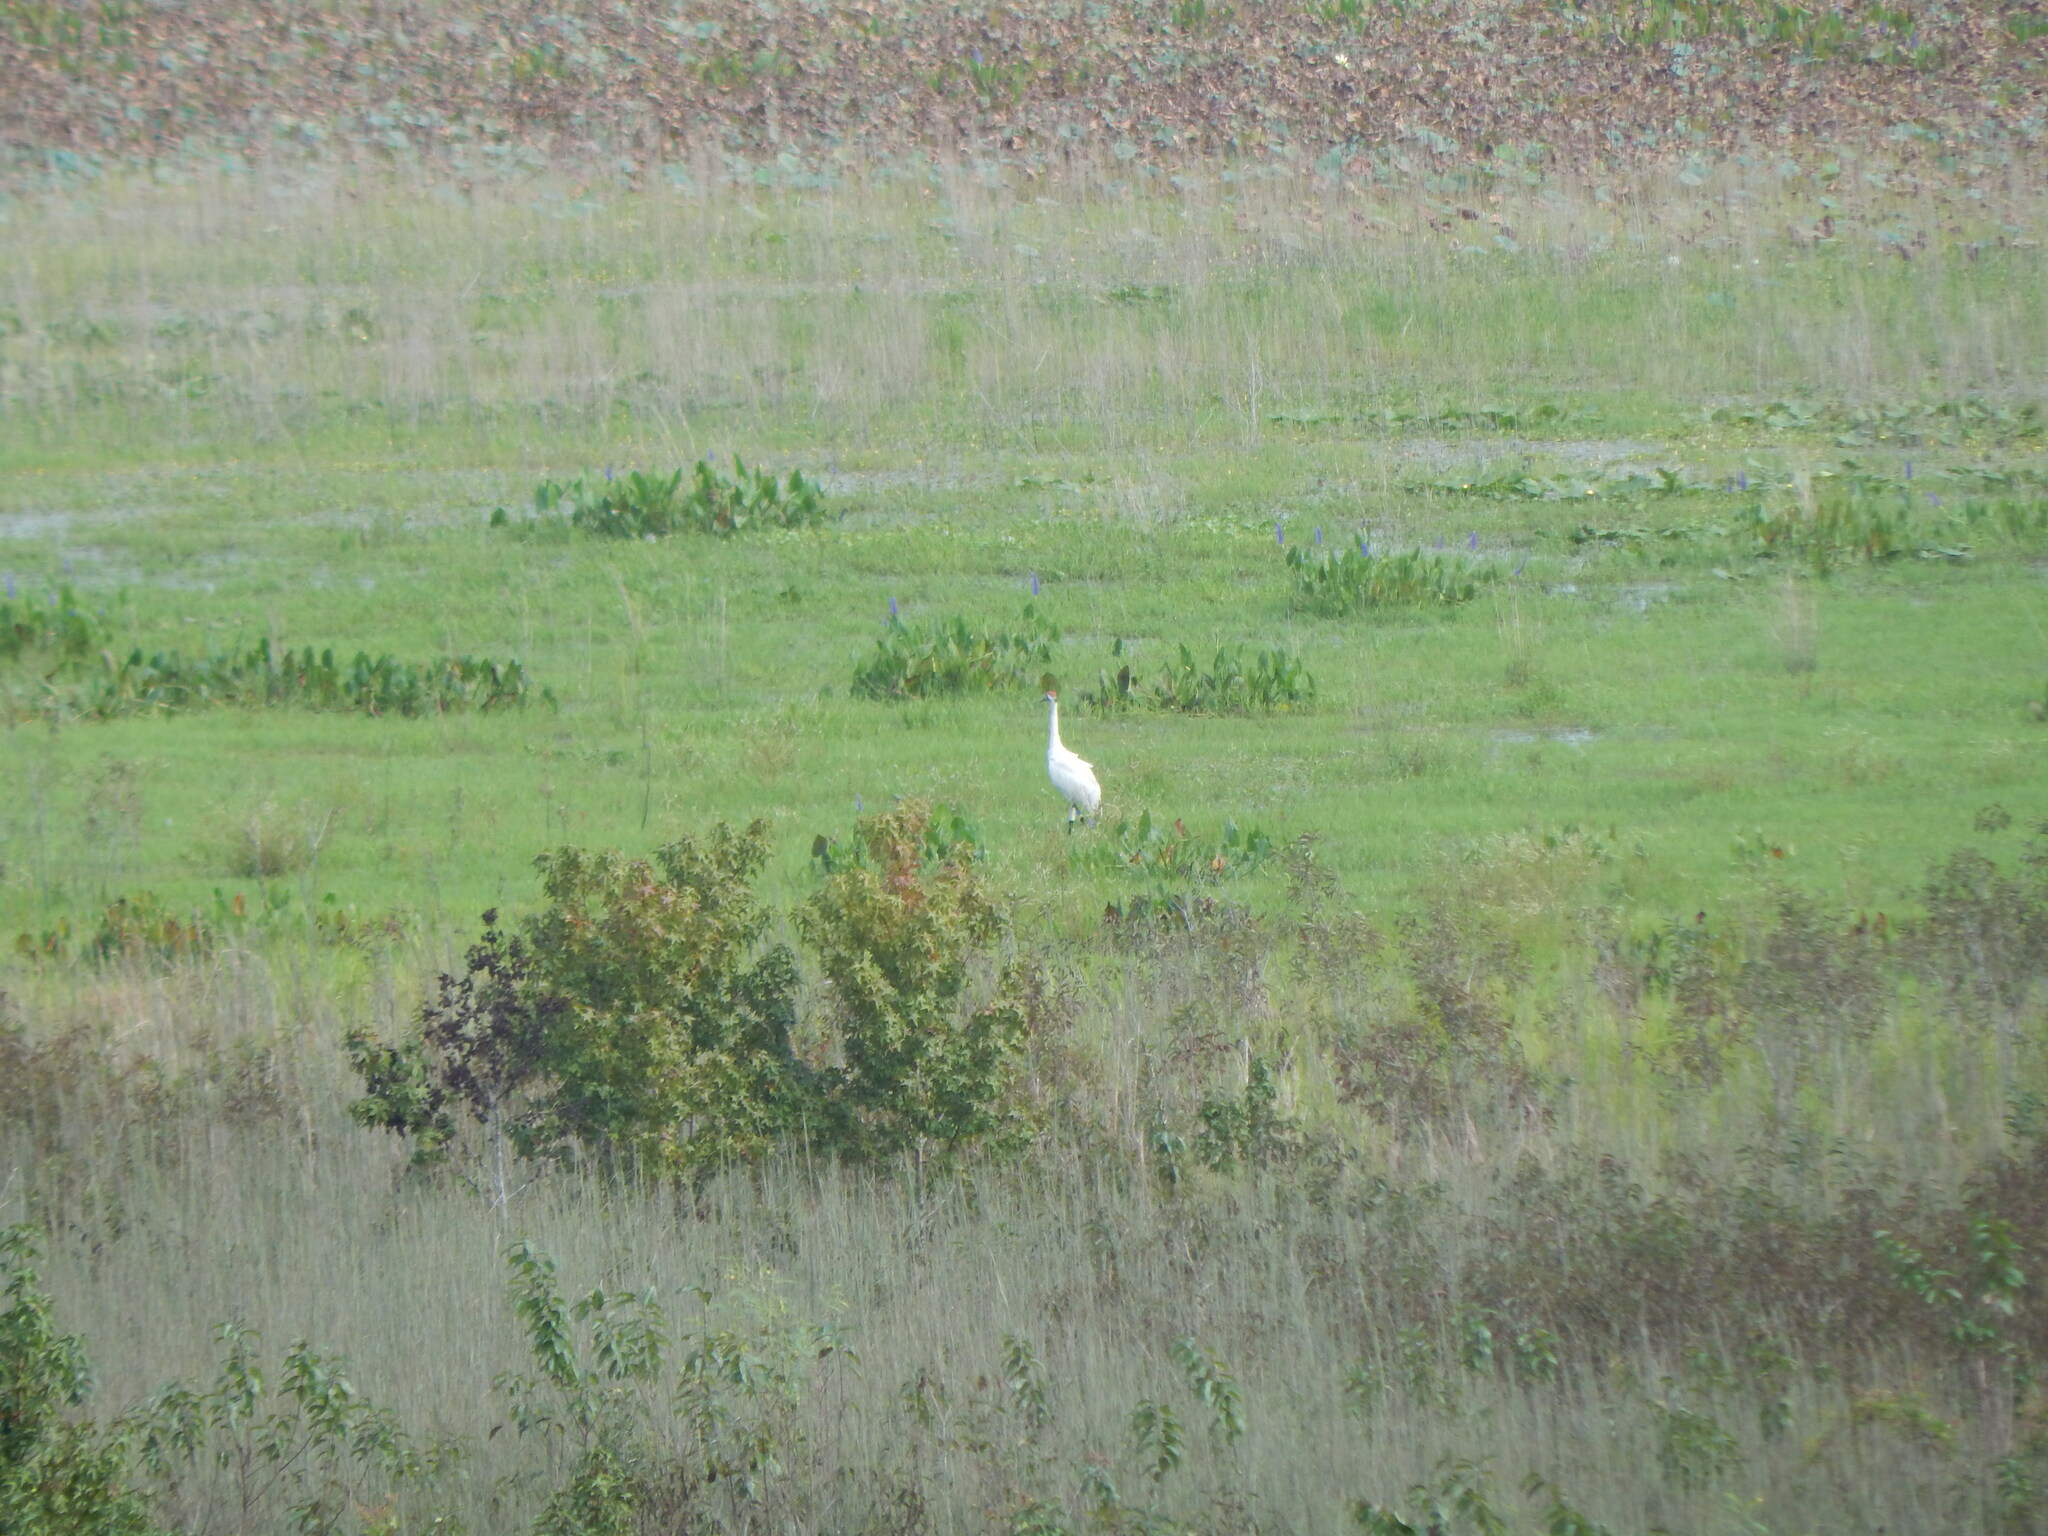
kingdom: Animalia
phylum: Chordata
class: Aves
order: Gruiformes
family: Gruidae
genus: Grus
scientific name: Grus americana
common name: Whooping crane
